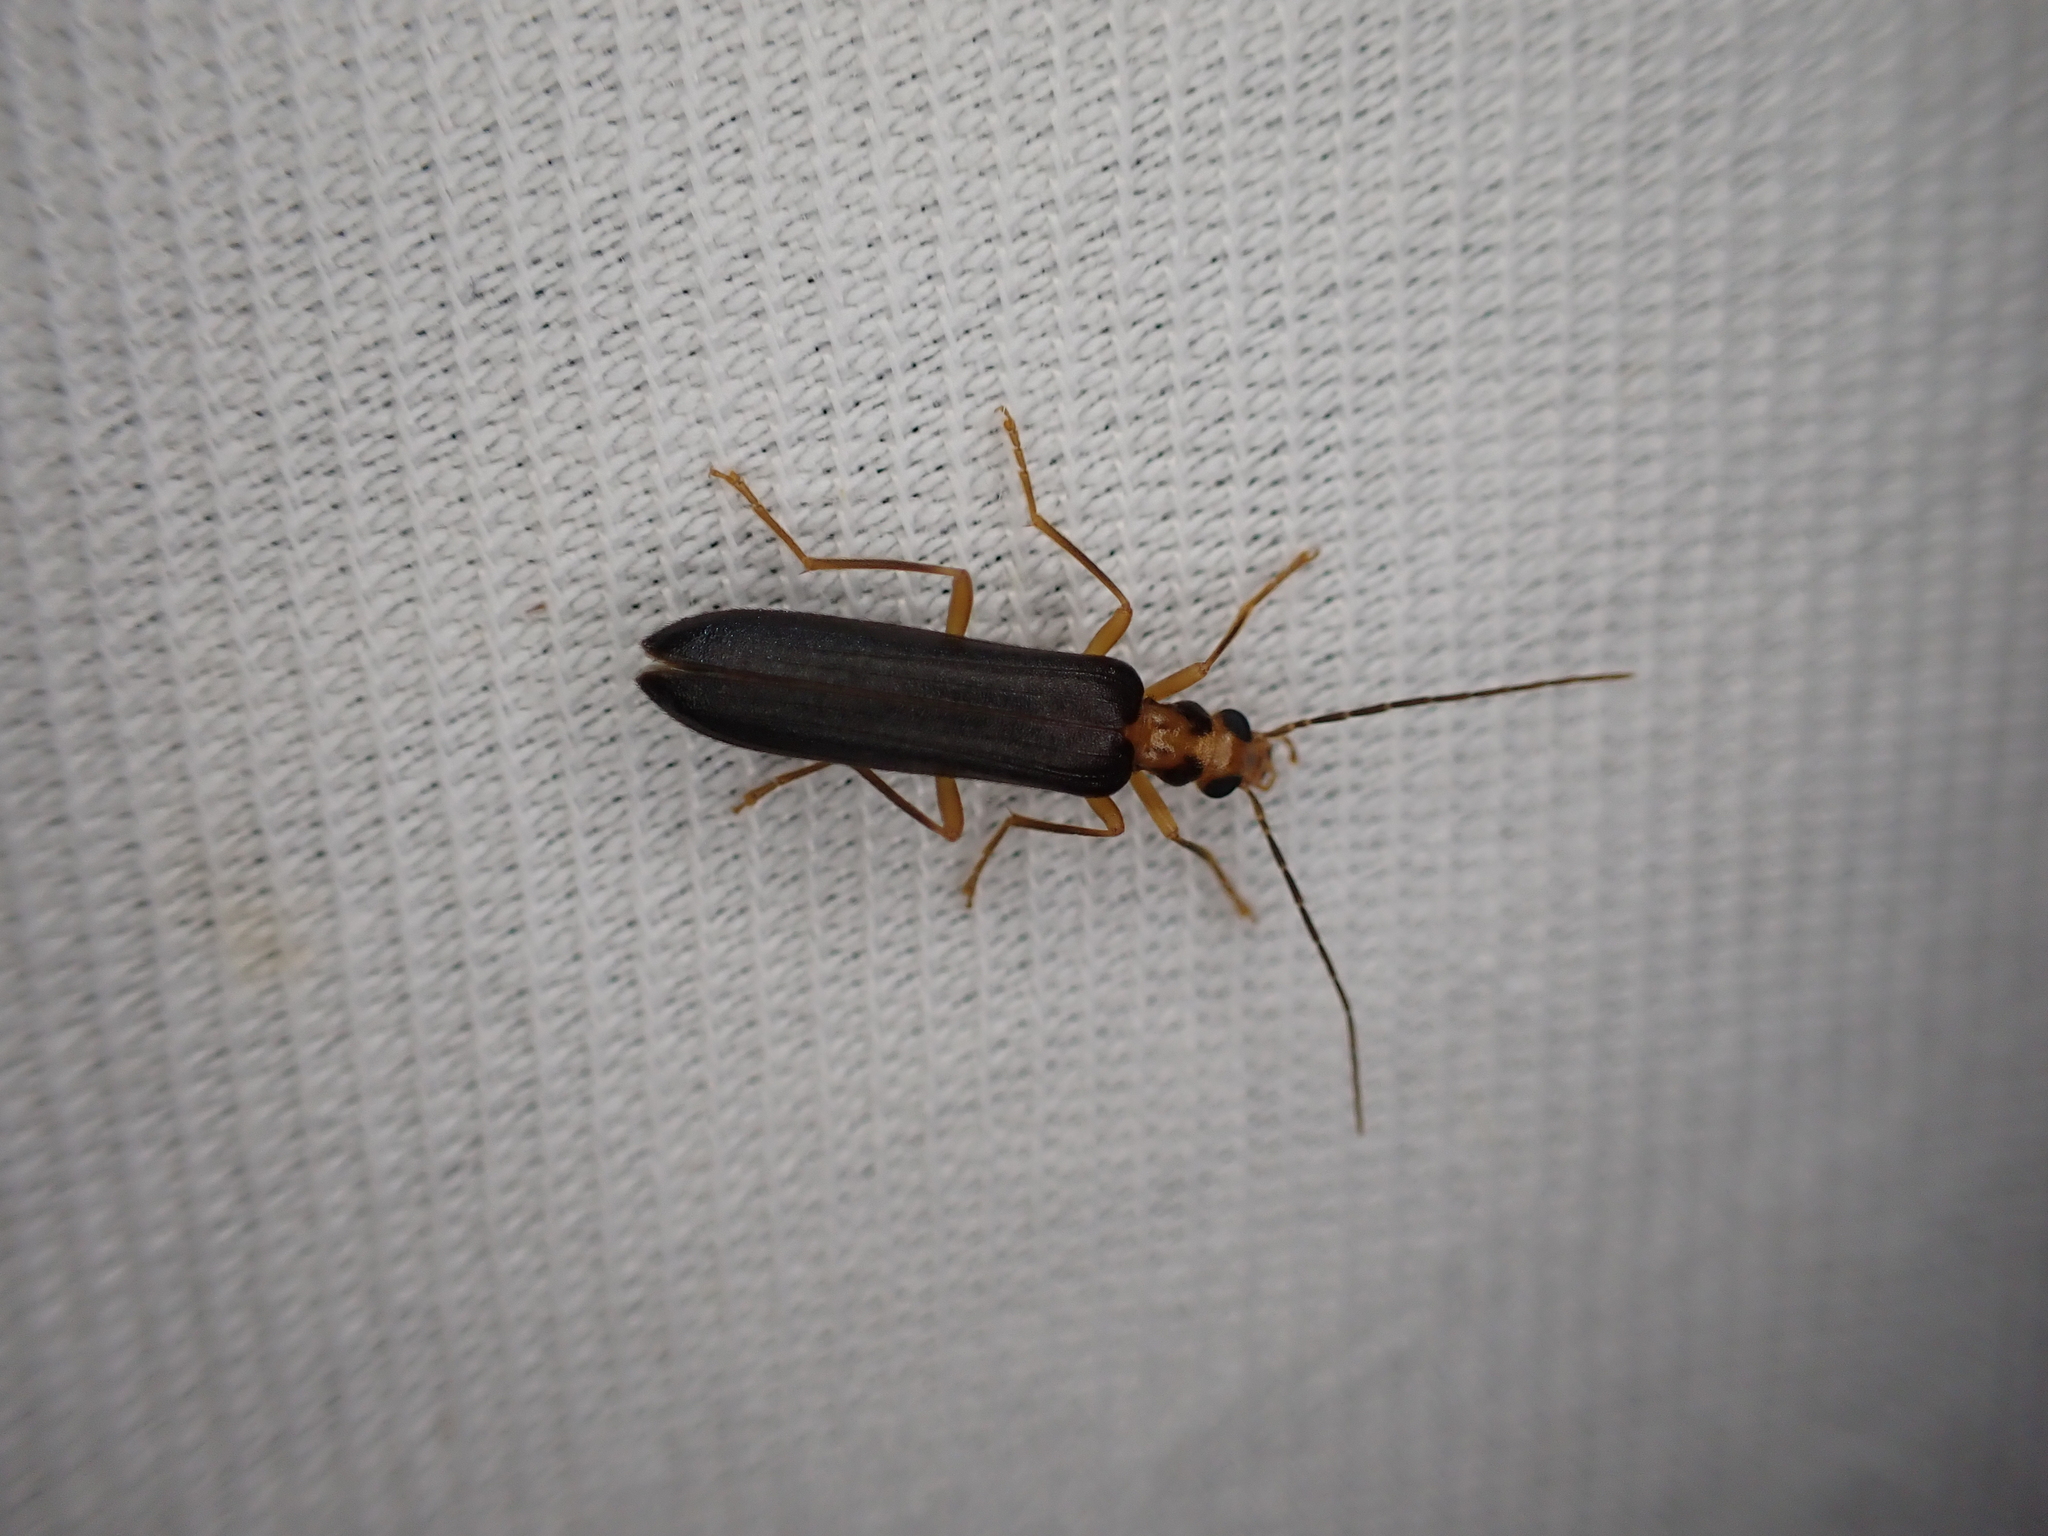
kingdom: Animalia
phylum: Arthropoda
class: Insecta
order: Coleoptera
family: Oedemeridae
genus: Nacerdes
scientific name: Nacerdes carniolica
